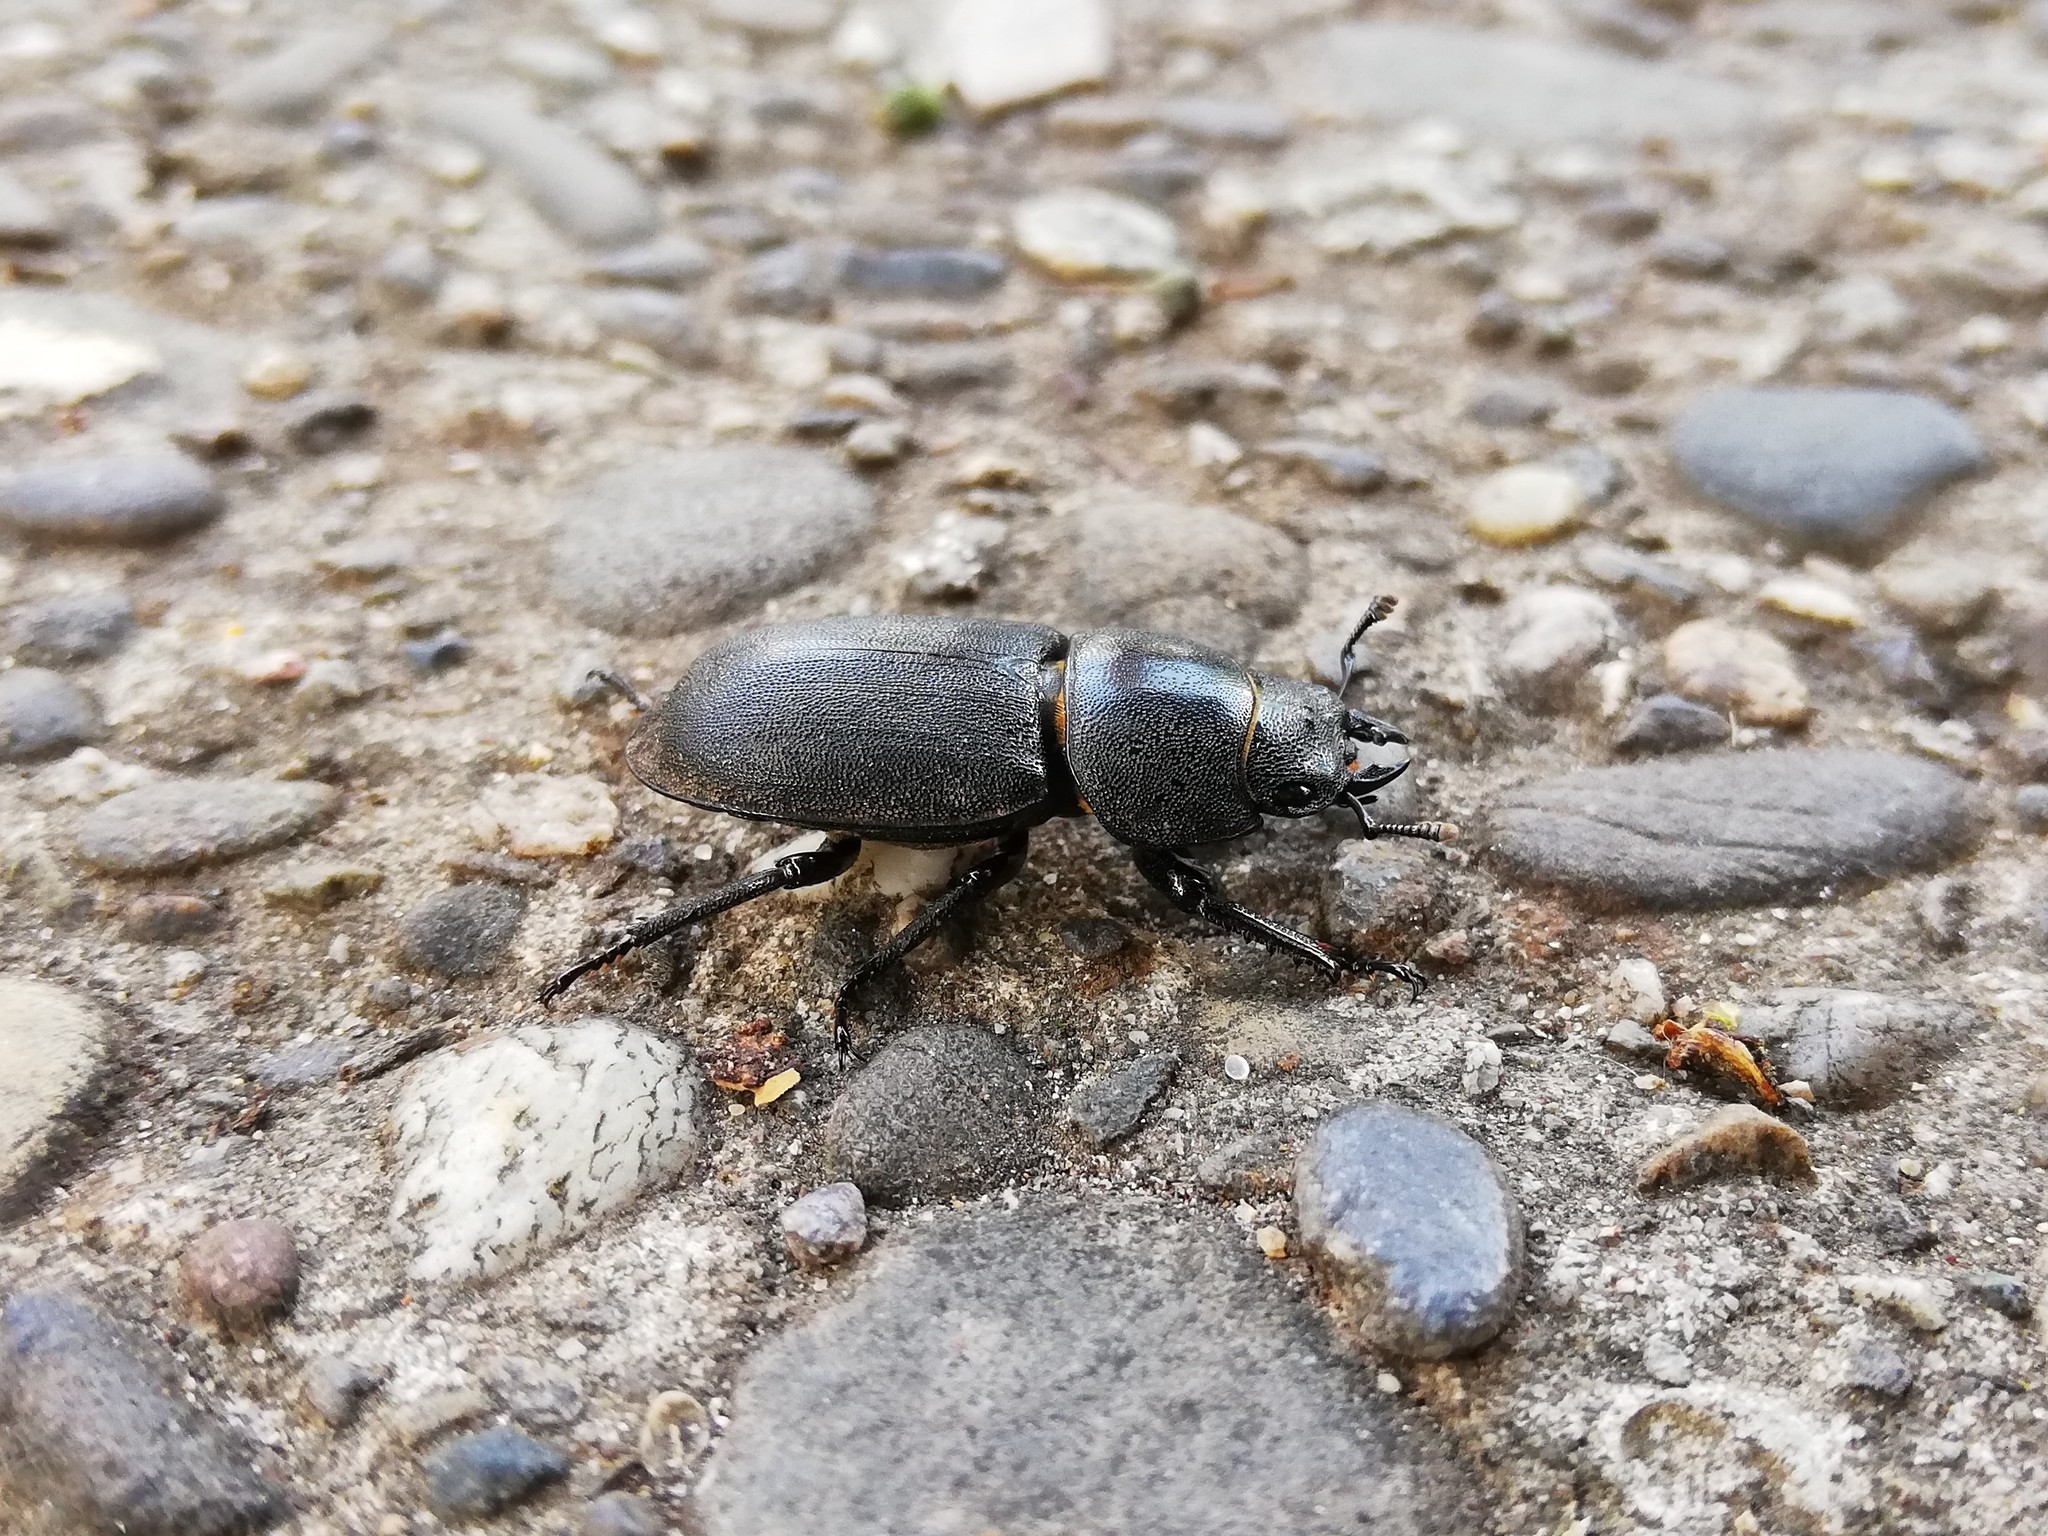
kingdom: Animalia
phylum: Arthropoda
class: Insecta
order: Coleoptera
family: Lucanidae
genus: Dorcus
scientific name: Dorcus parallelipipedus
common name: Lesser stag beetle
